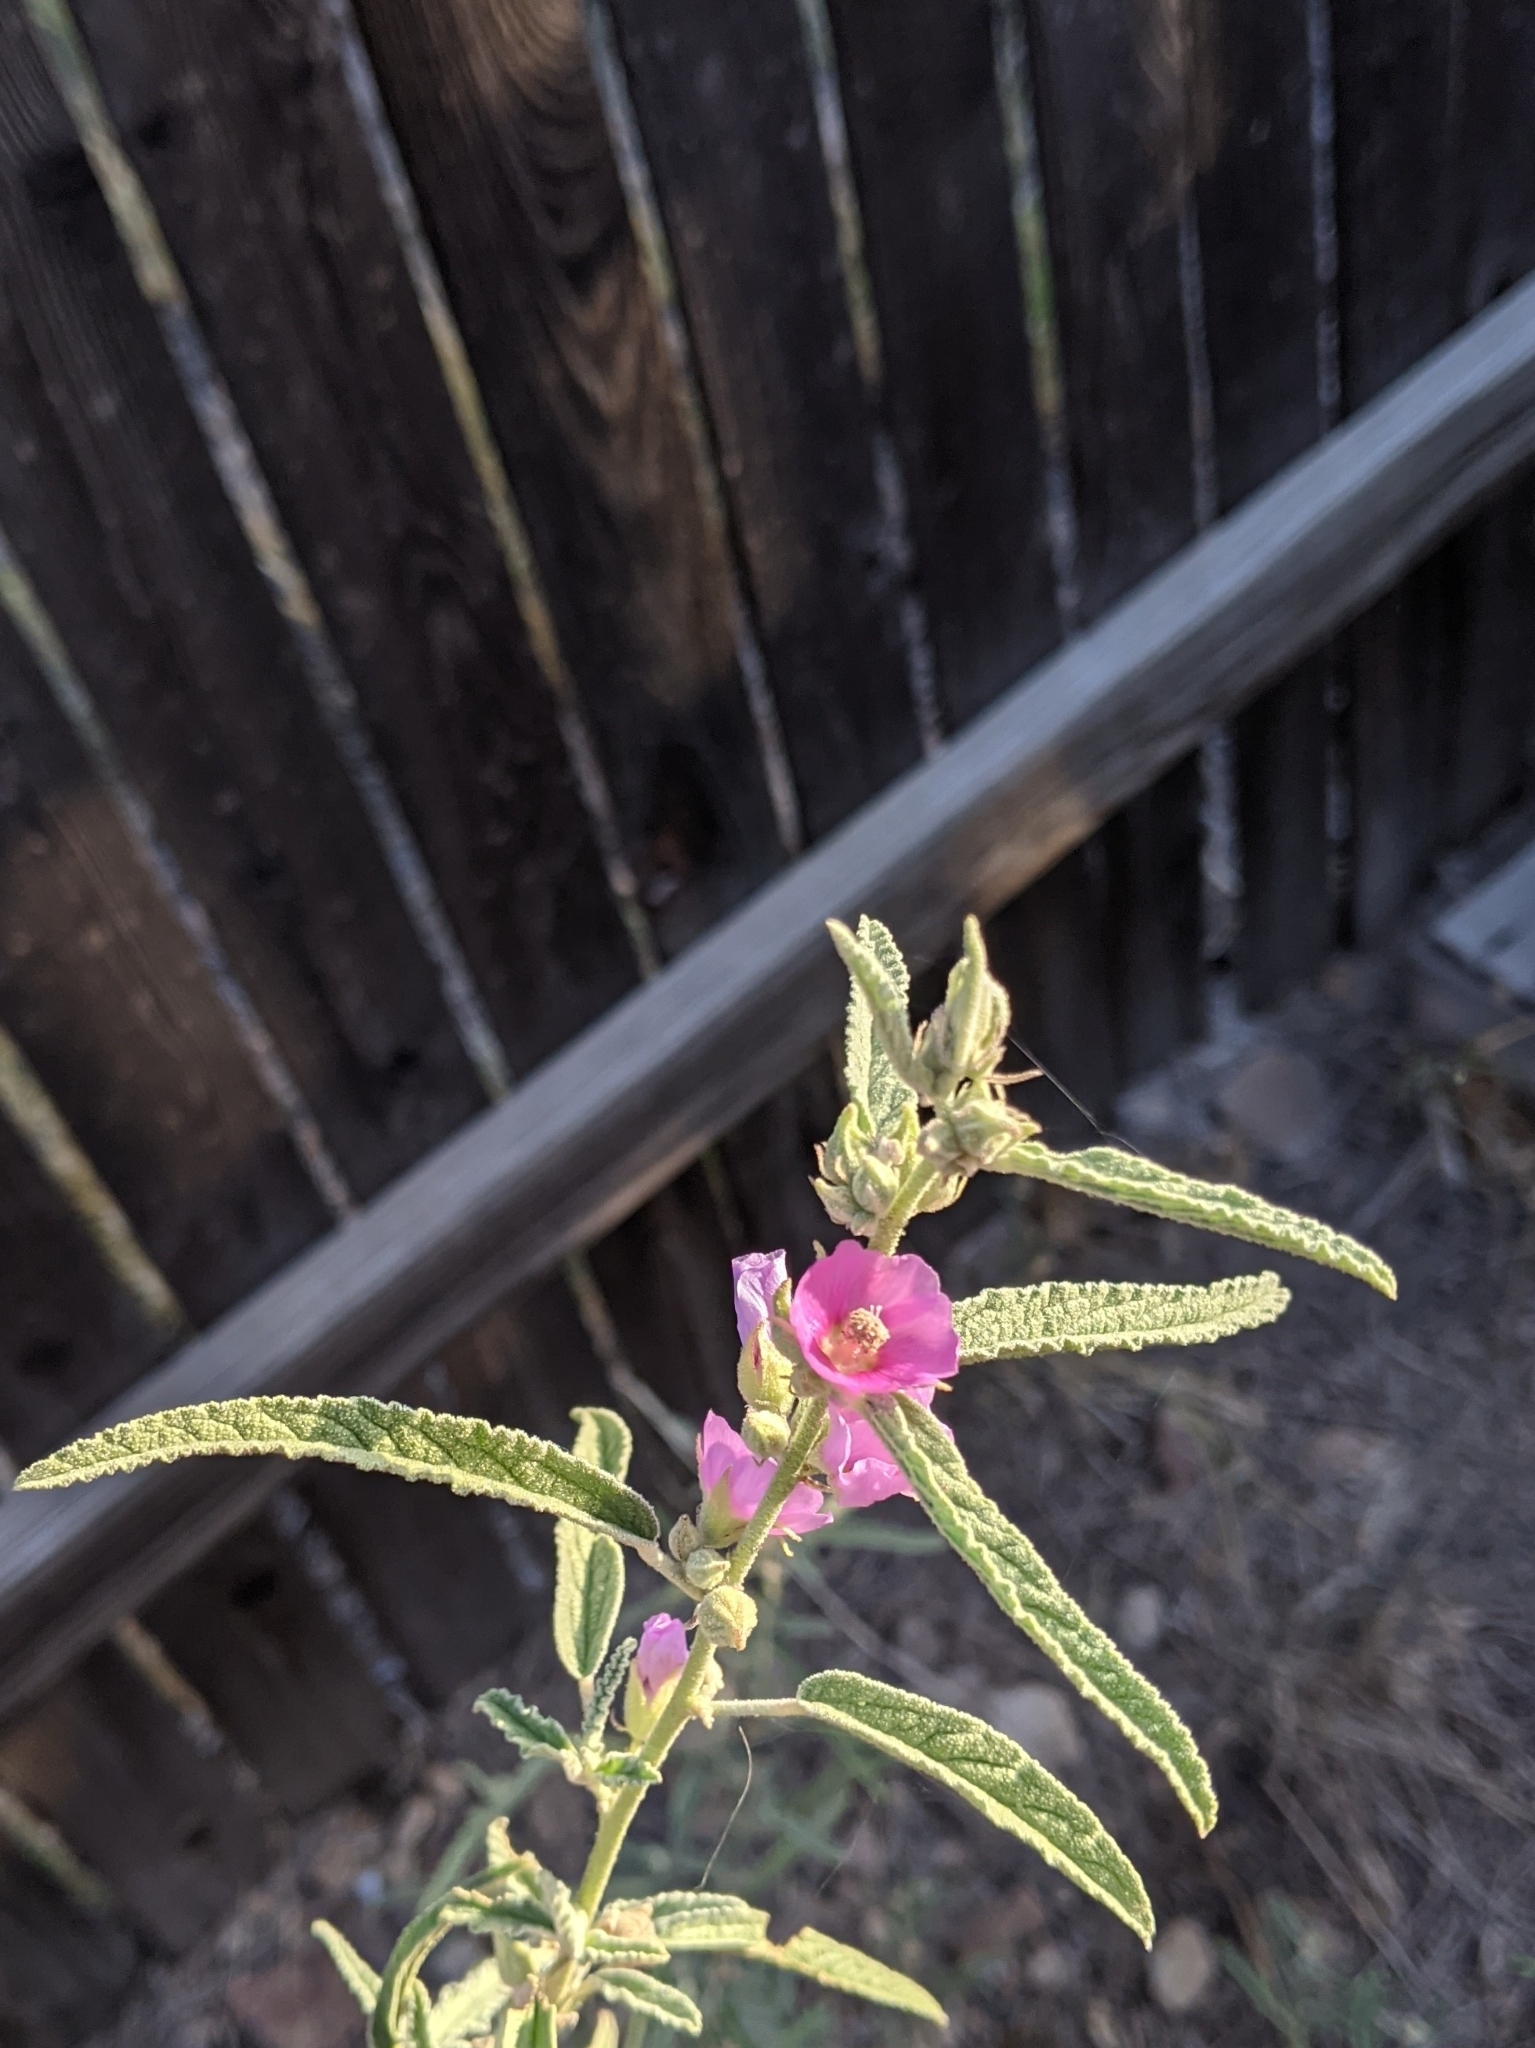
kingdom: Plantae
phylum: Tracheophyta
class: Magnoliopsida
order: Malvales
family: Malvaceae
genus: Sphaeralcea
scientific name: Sphaeralcea angustifolia
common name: Copper globe-mallow
